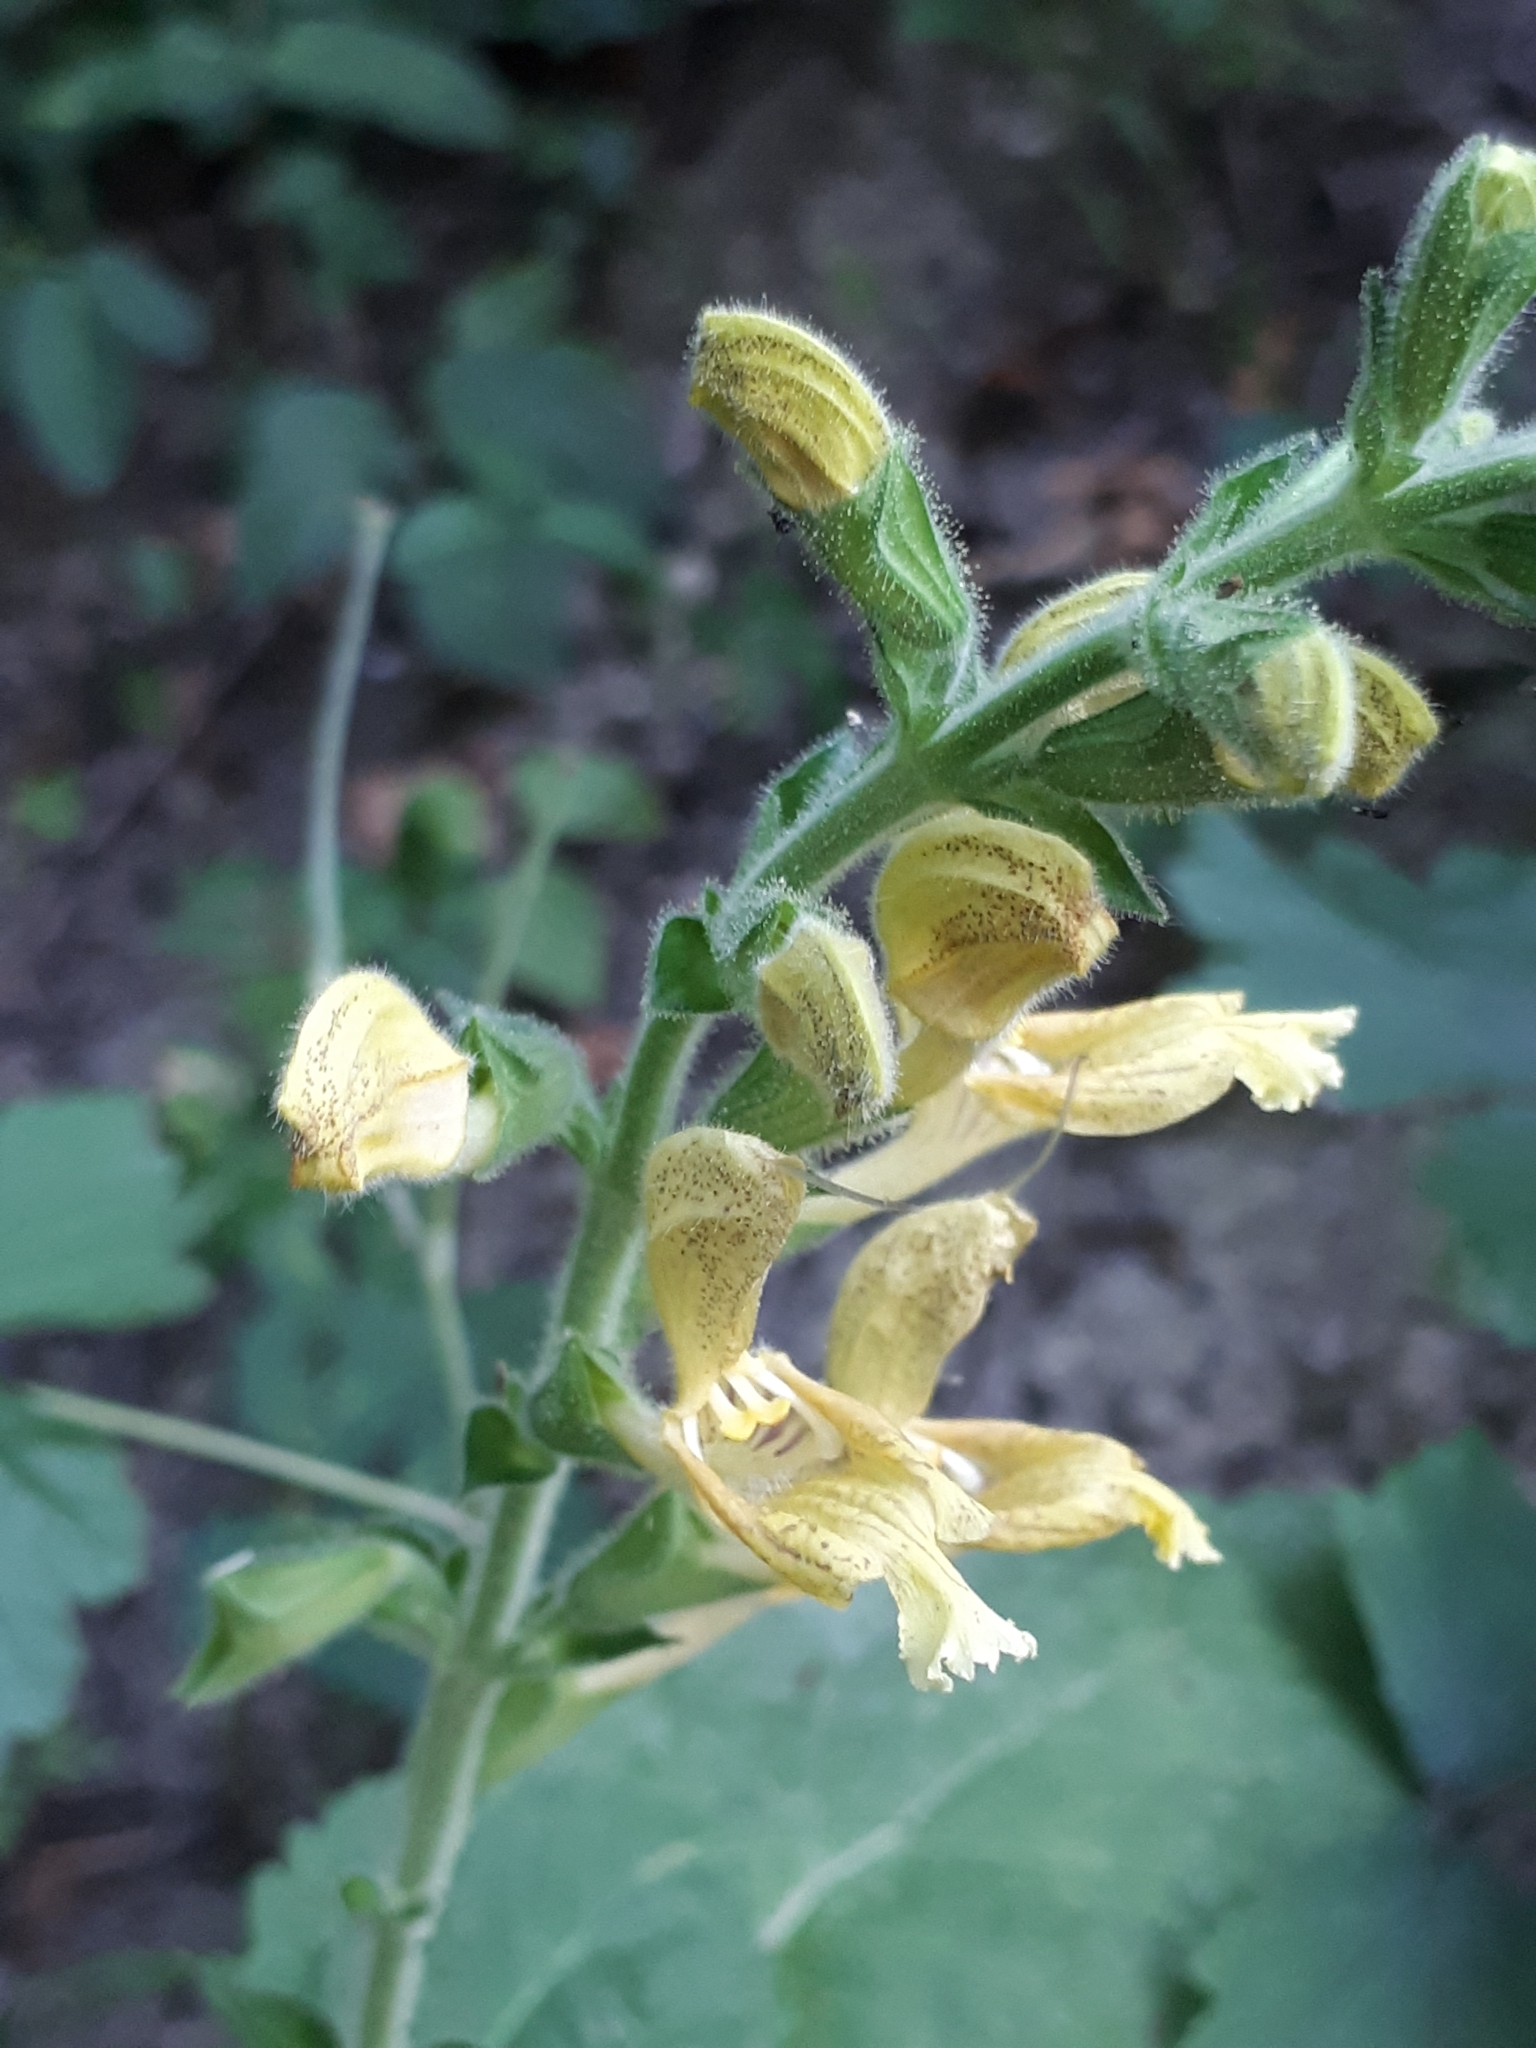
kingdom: Plantae
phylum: Tracheophyta
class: Magnoliopsida
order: Lamiales
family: Lamiaceae
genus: Salvia
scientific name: Salvia glutinosa
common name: Sticky clary
